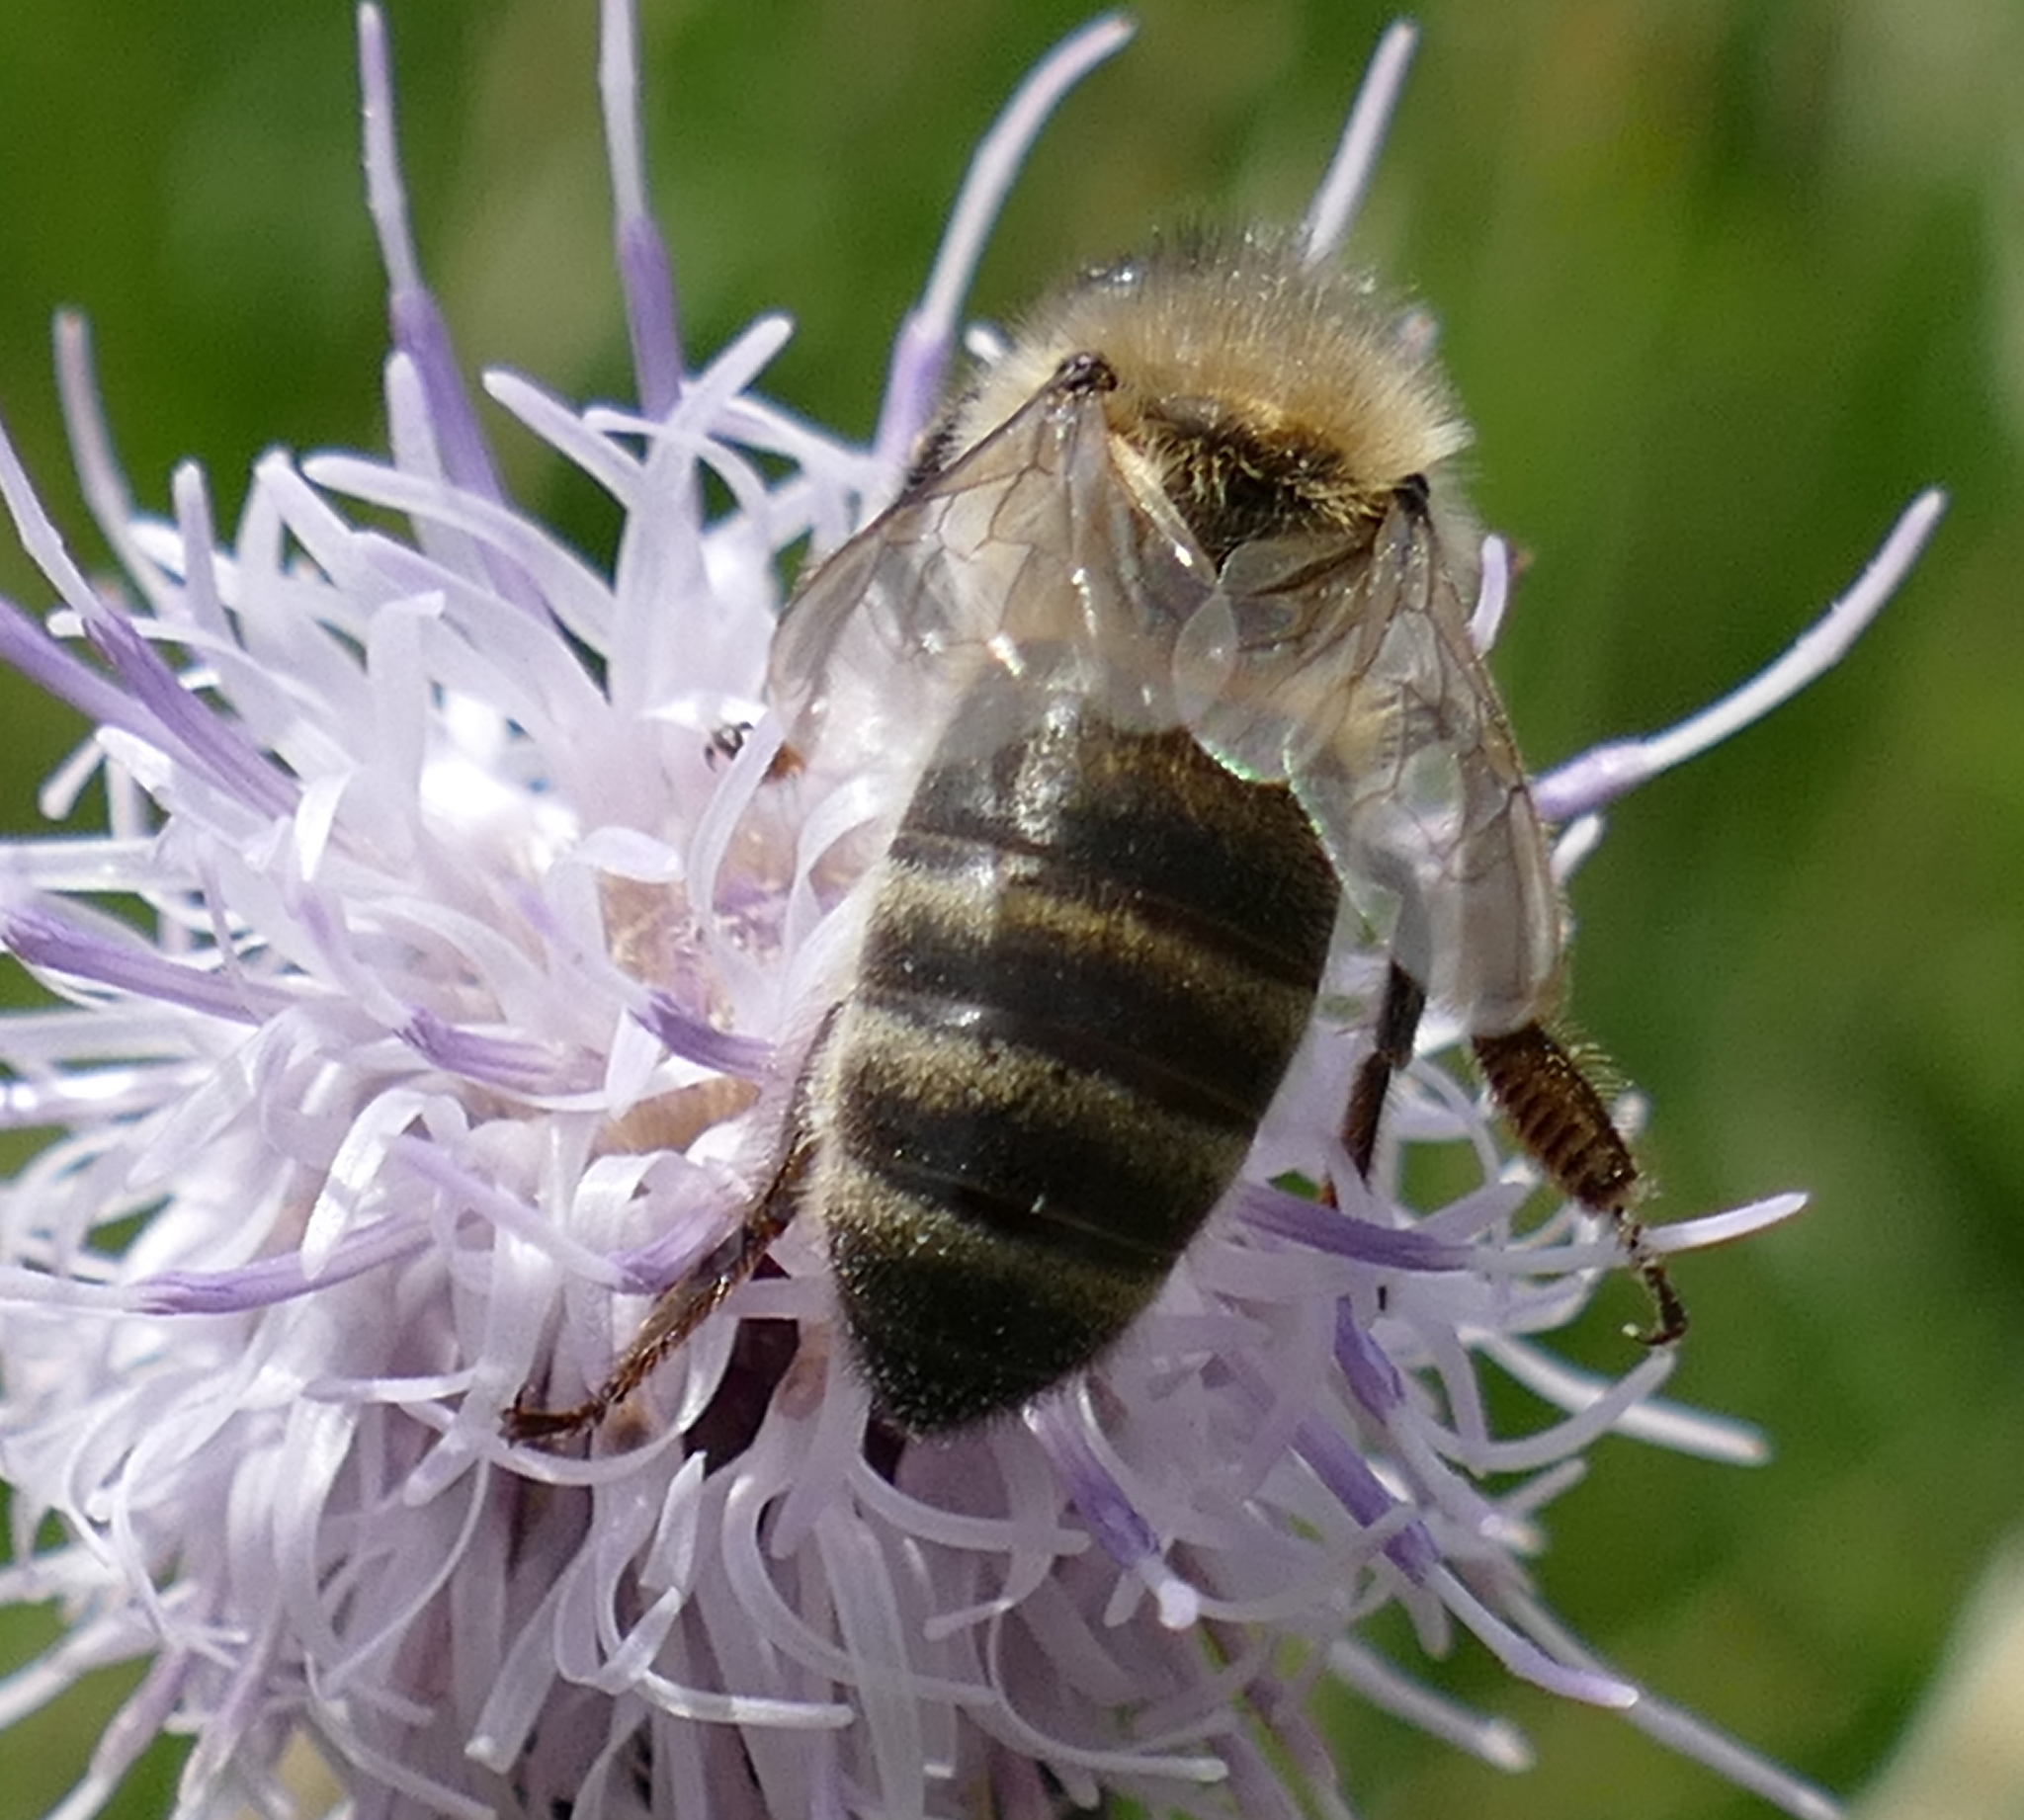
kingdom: Animalia
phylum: Arthropoda
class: Insecta
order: Hymenoptera
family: Apidae
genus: Apis
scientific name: Apis mellifera
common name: Honey bee
